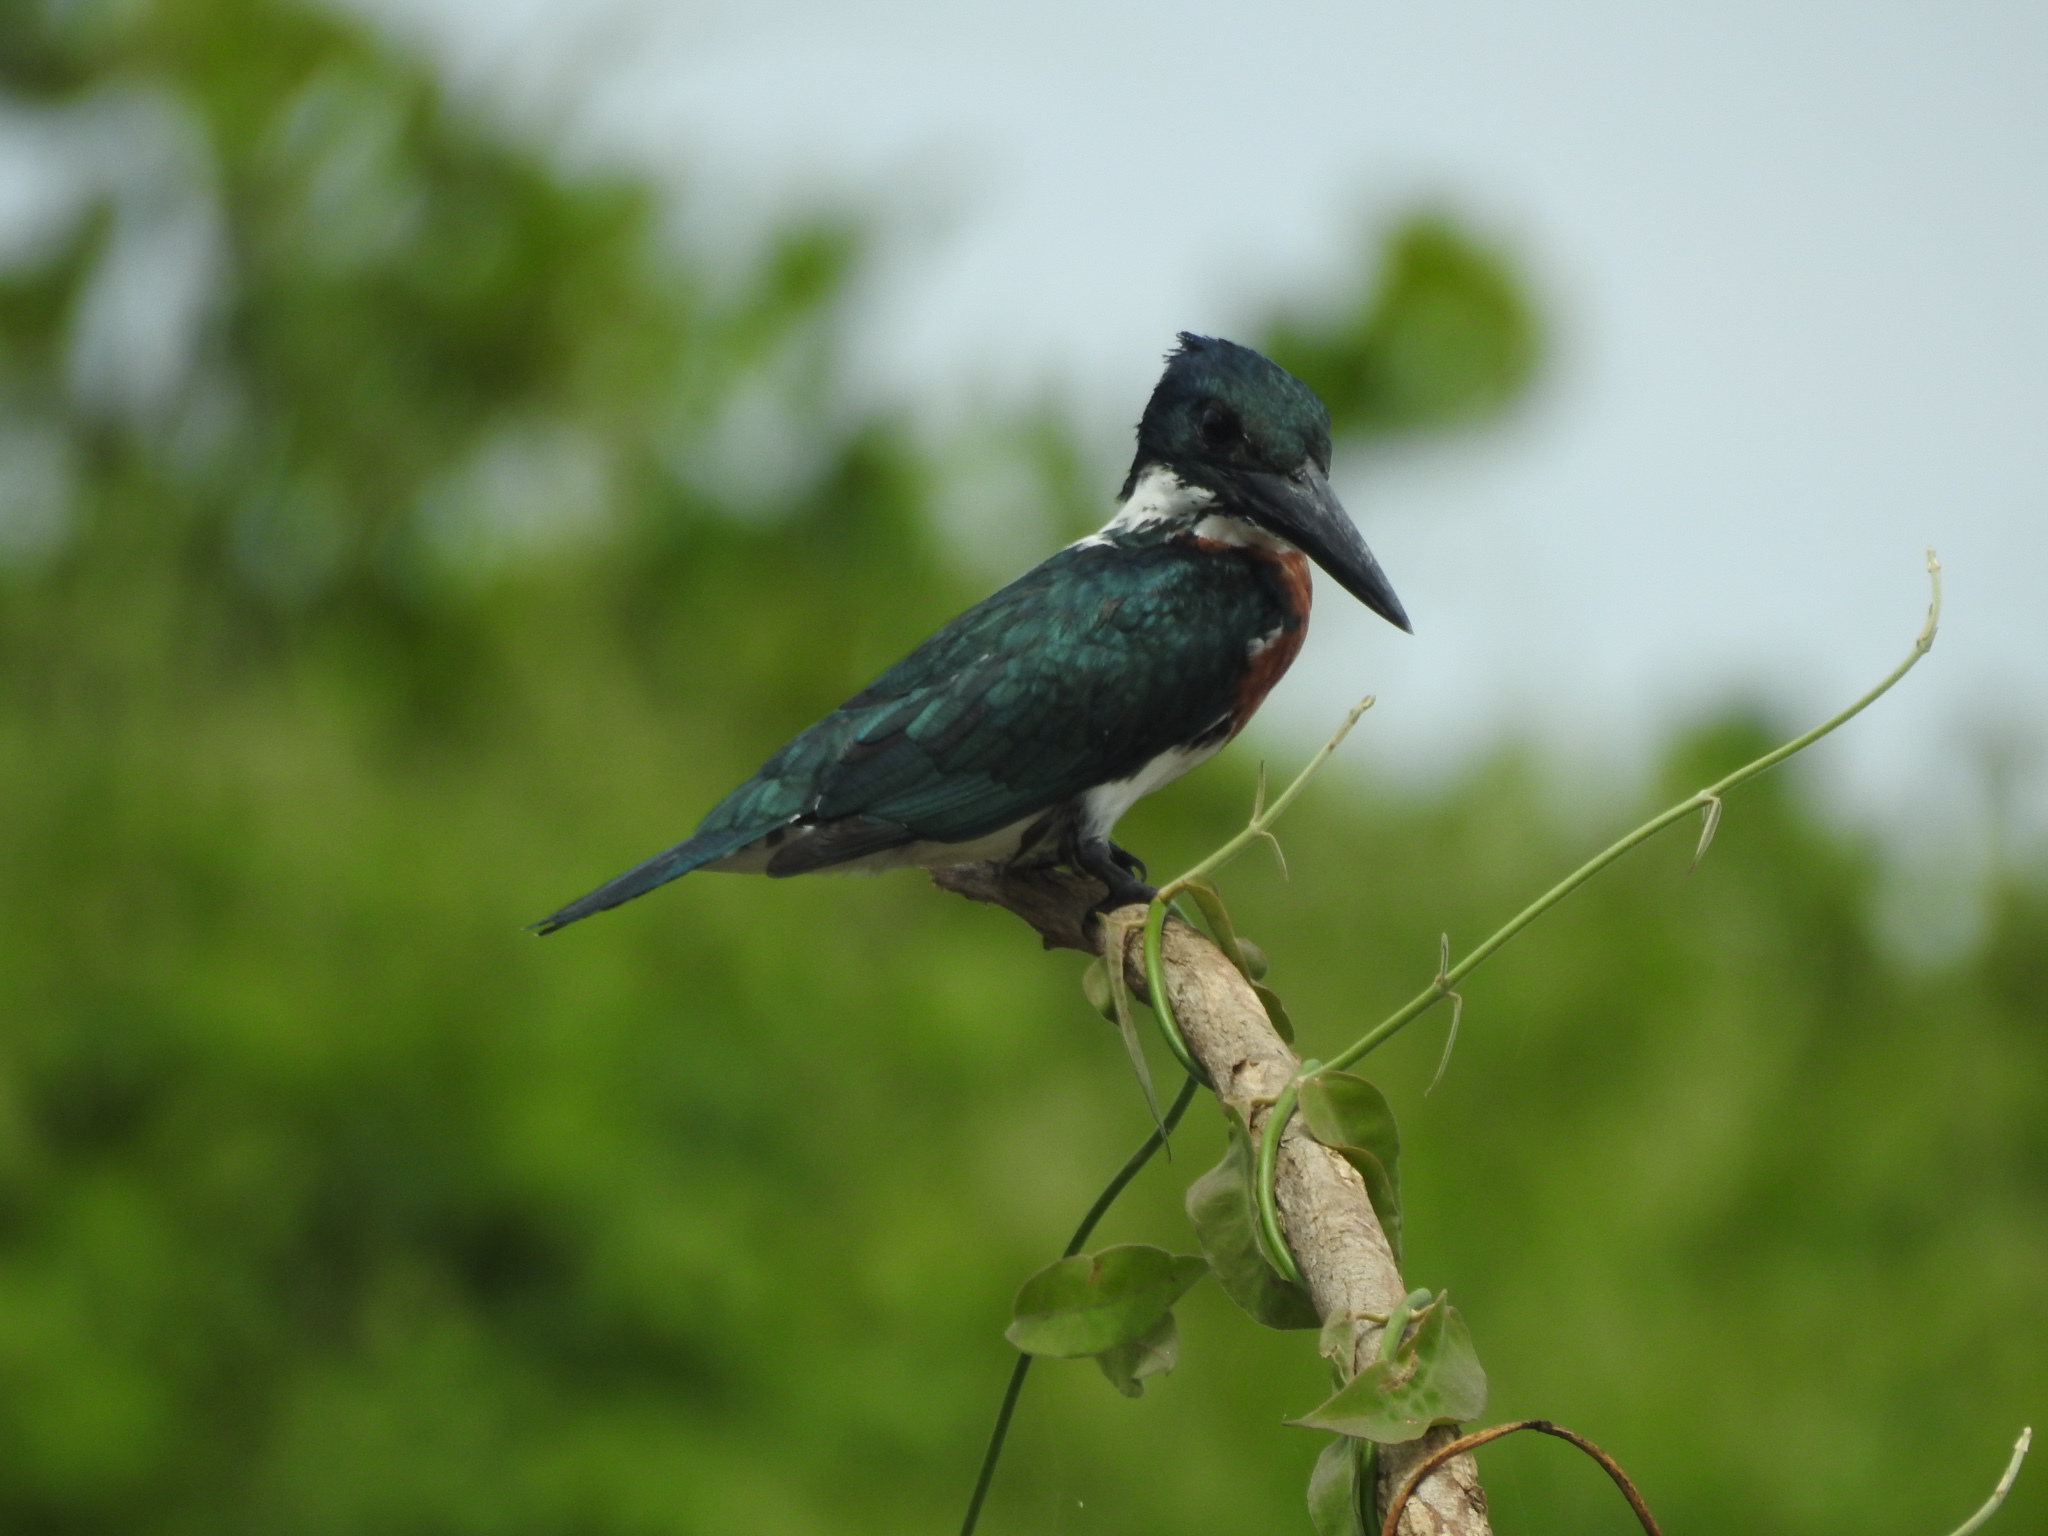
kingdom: Animalia
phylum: Chordata
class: Aves
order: Coraciiformes
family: Alcedinidae
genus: Chloroceryle
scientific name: Chloroceryle amazona
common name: Amazon kingfisher
